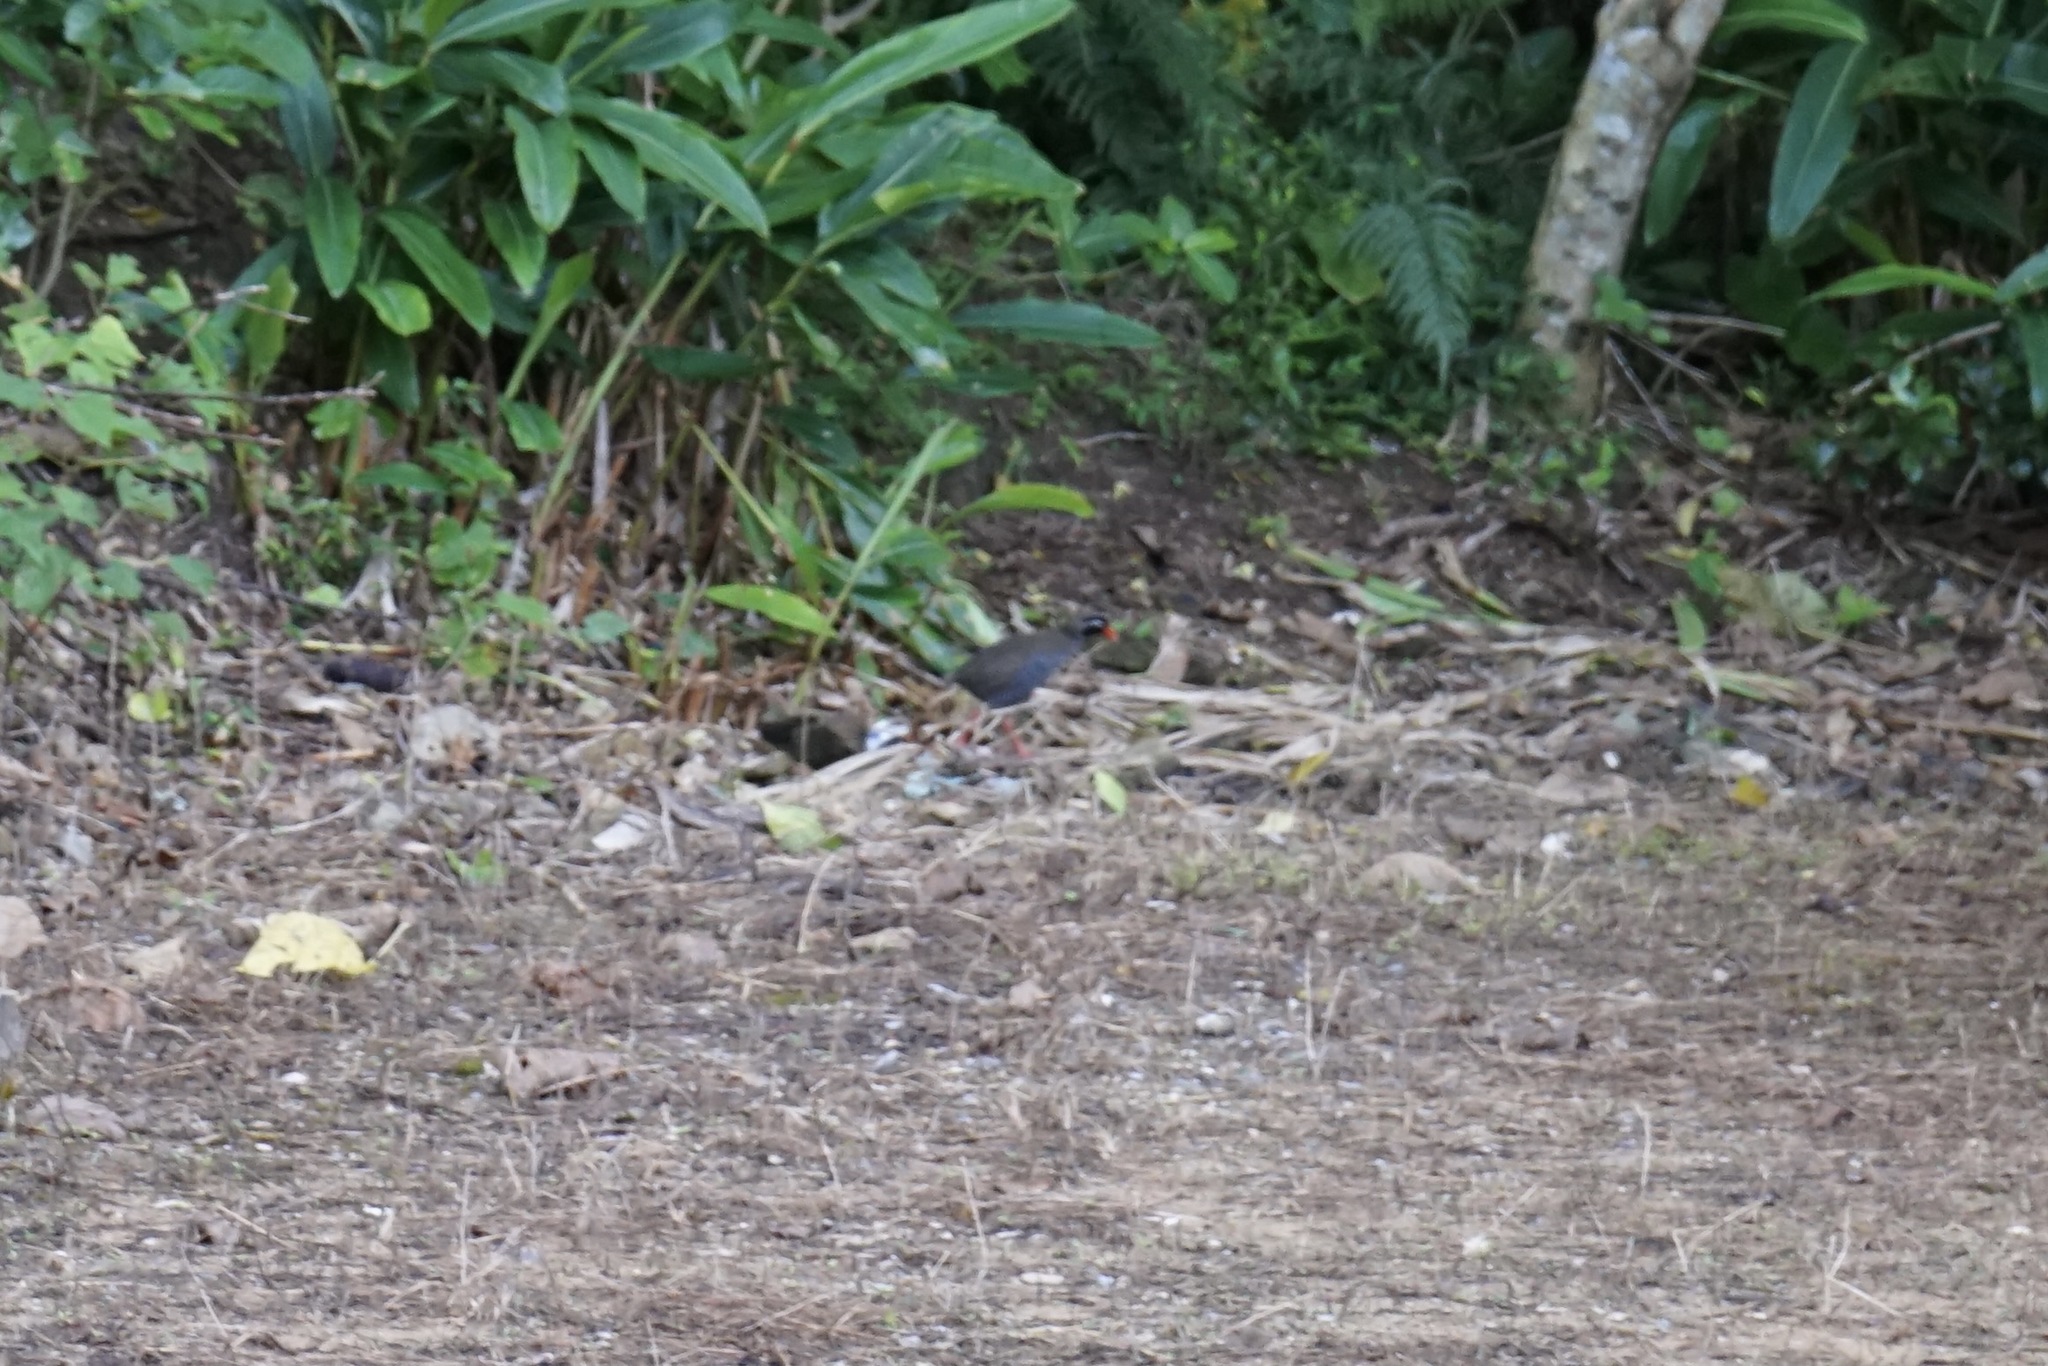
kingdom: Animalia
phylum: Chordata
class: Aves
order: Gruiformes
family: Rallidae
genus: Gallirallus
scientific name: Gallirallus okinawae
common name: Okinawa rail
